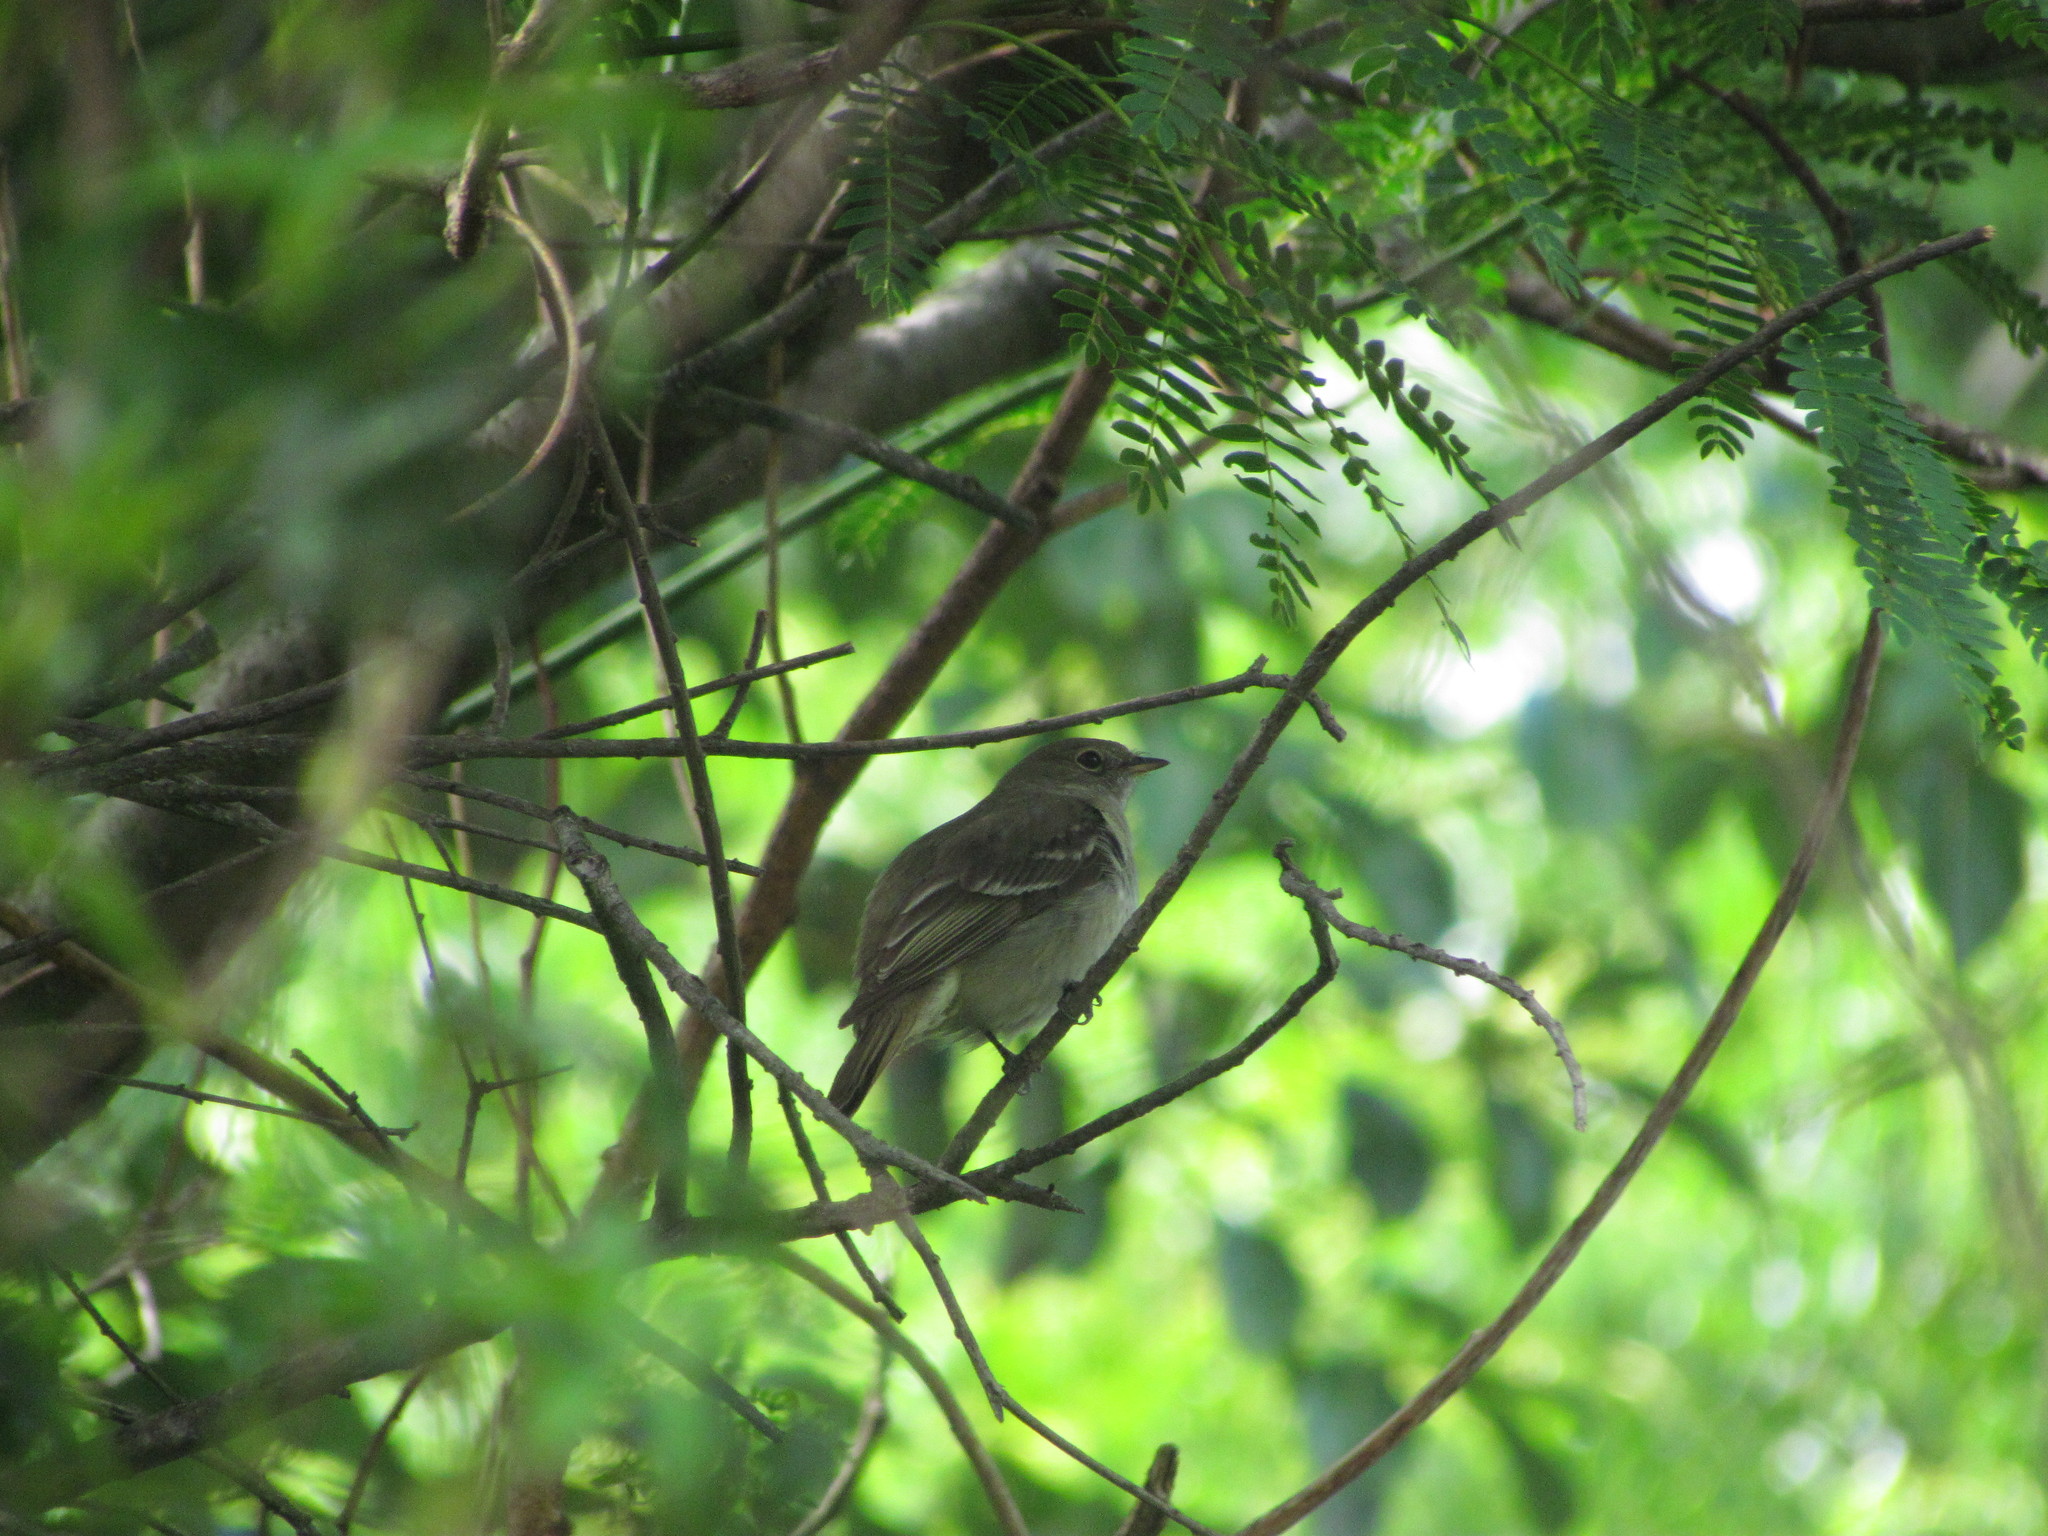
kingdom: Animalia
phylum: Chordata
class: Aves
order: Passeriformes
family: Tyrannidae
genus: Elaenia
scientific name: Elaenia mesoleuca
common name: Olivaceous elaenia
